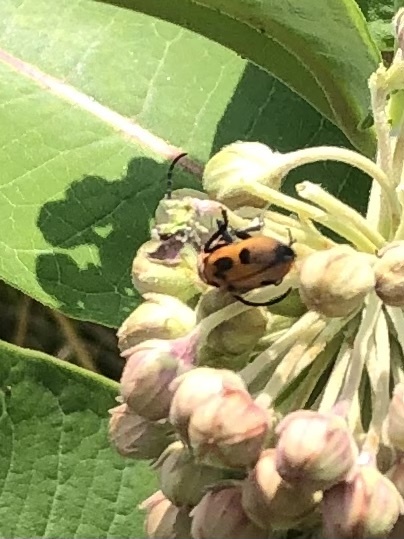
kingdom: Animalia
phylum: Arthropoda
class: Insecta
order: Coleoptera
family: Cerambycidae
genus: Tetraopes
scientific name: Tetraopes tetrophthalmus
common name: Red milkweed beetle
